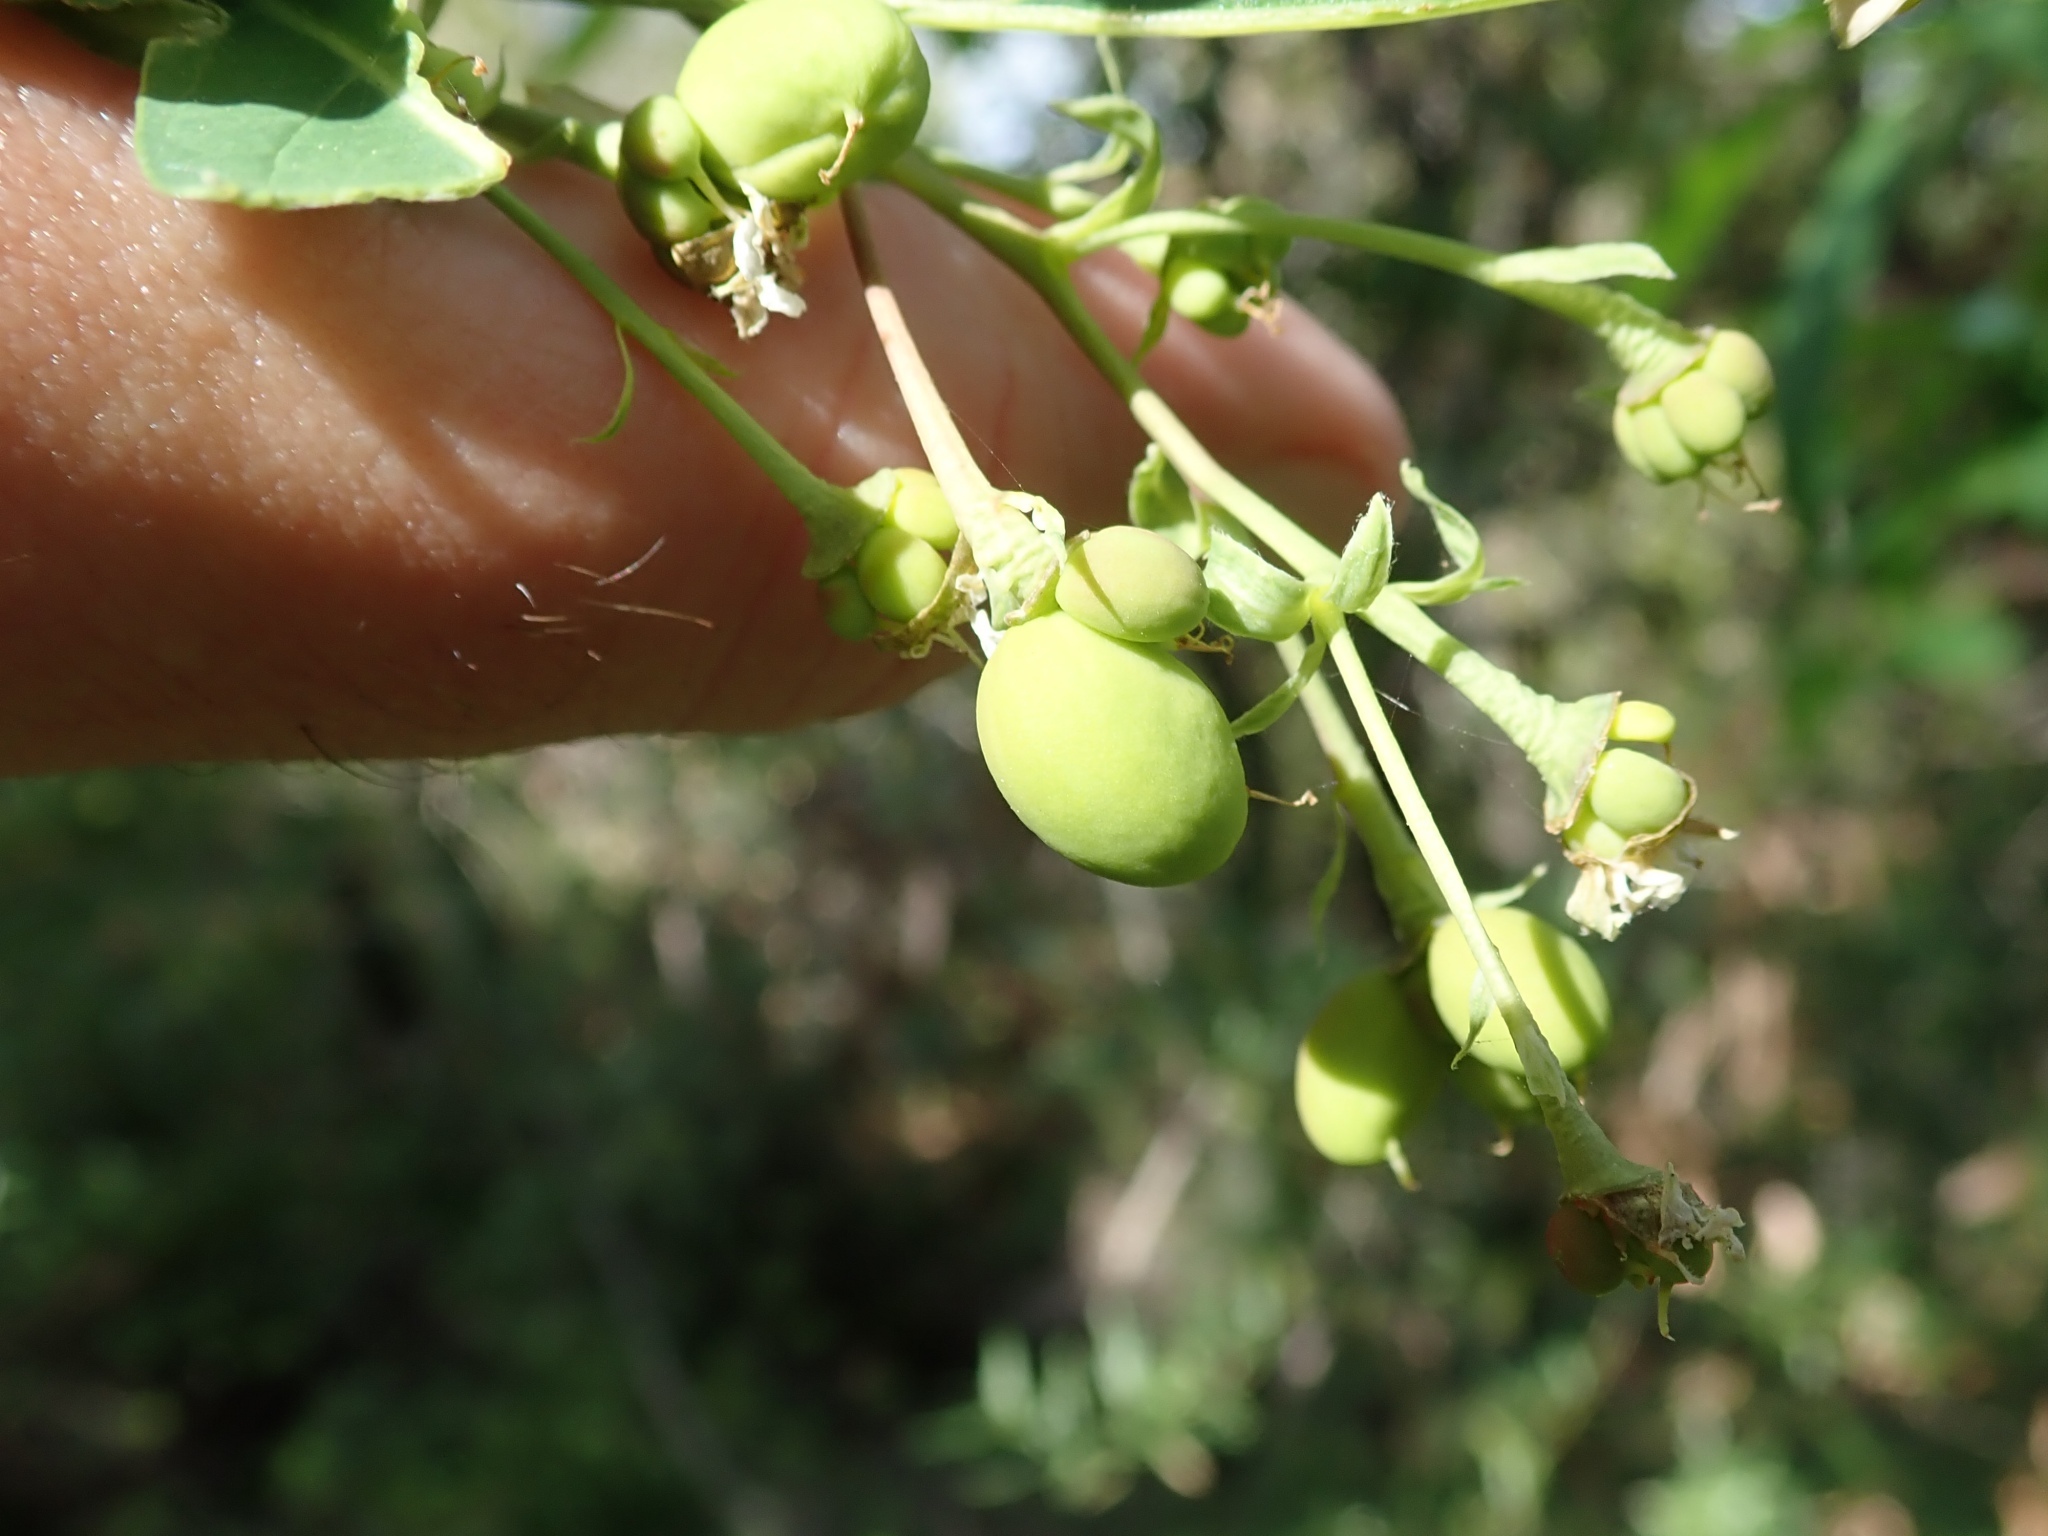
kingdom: Plantae
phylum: Tracheophyta
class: Magnoliopsida
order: Rosales
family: Rosaceae
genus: Oemleria
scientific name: Oemleria cerasiformis
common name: Osoberry
